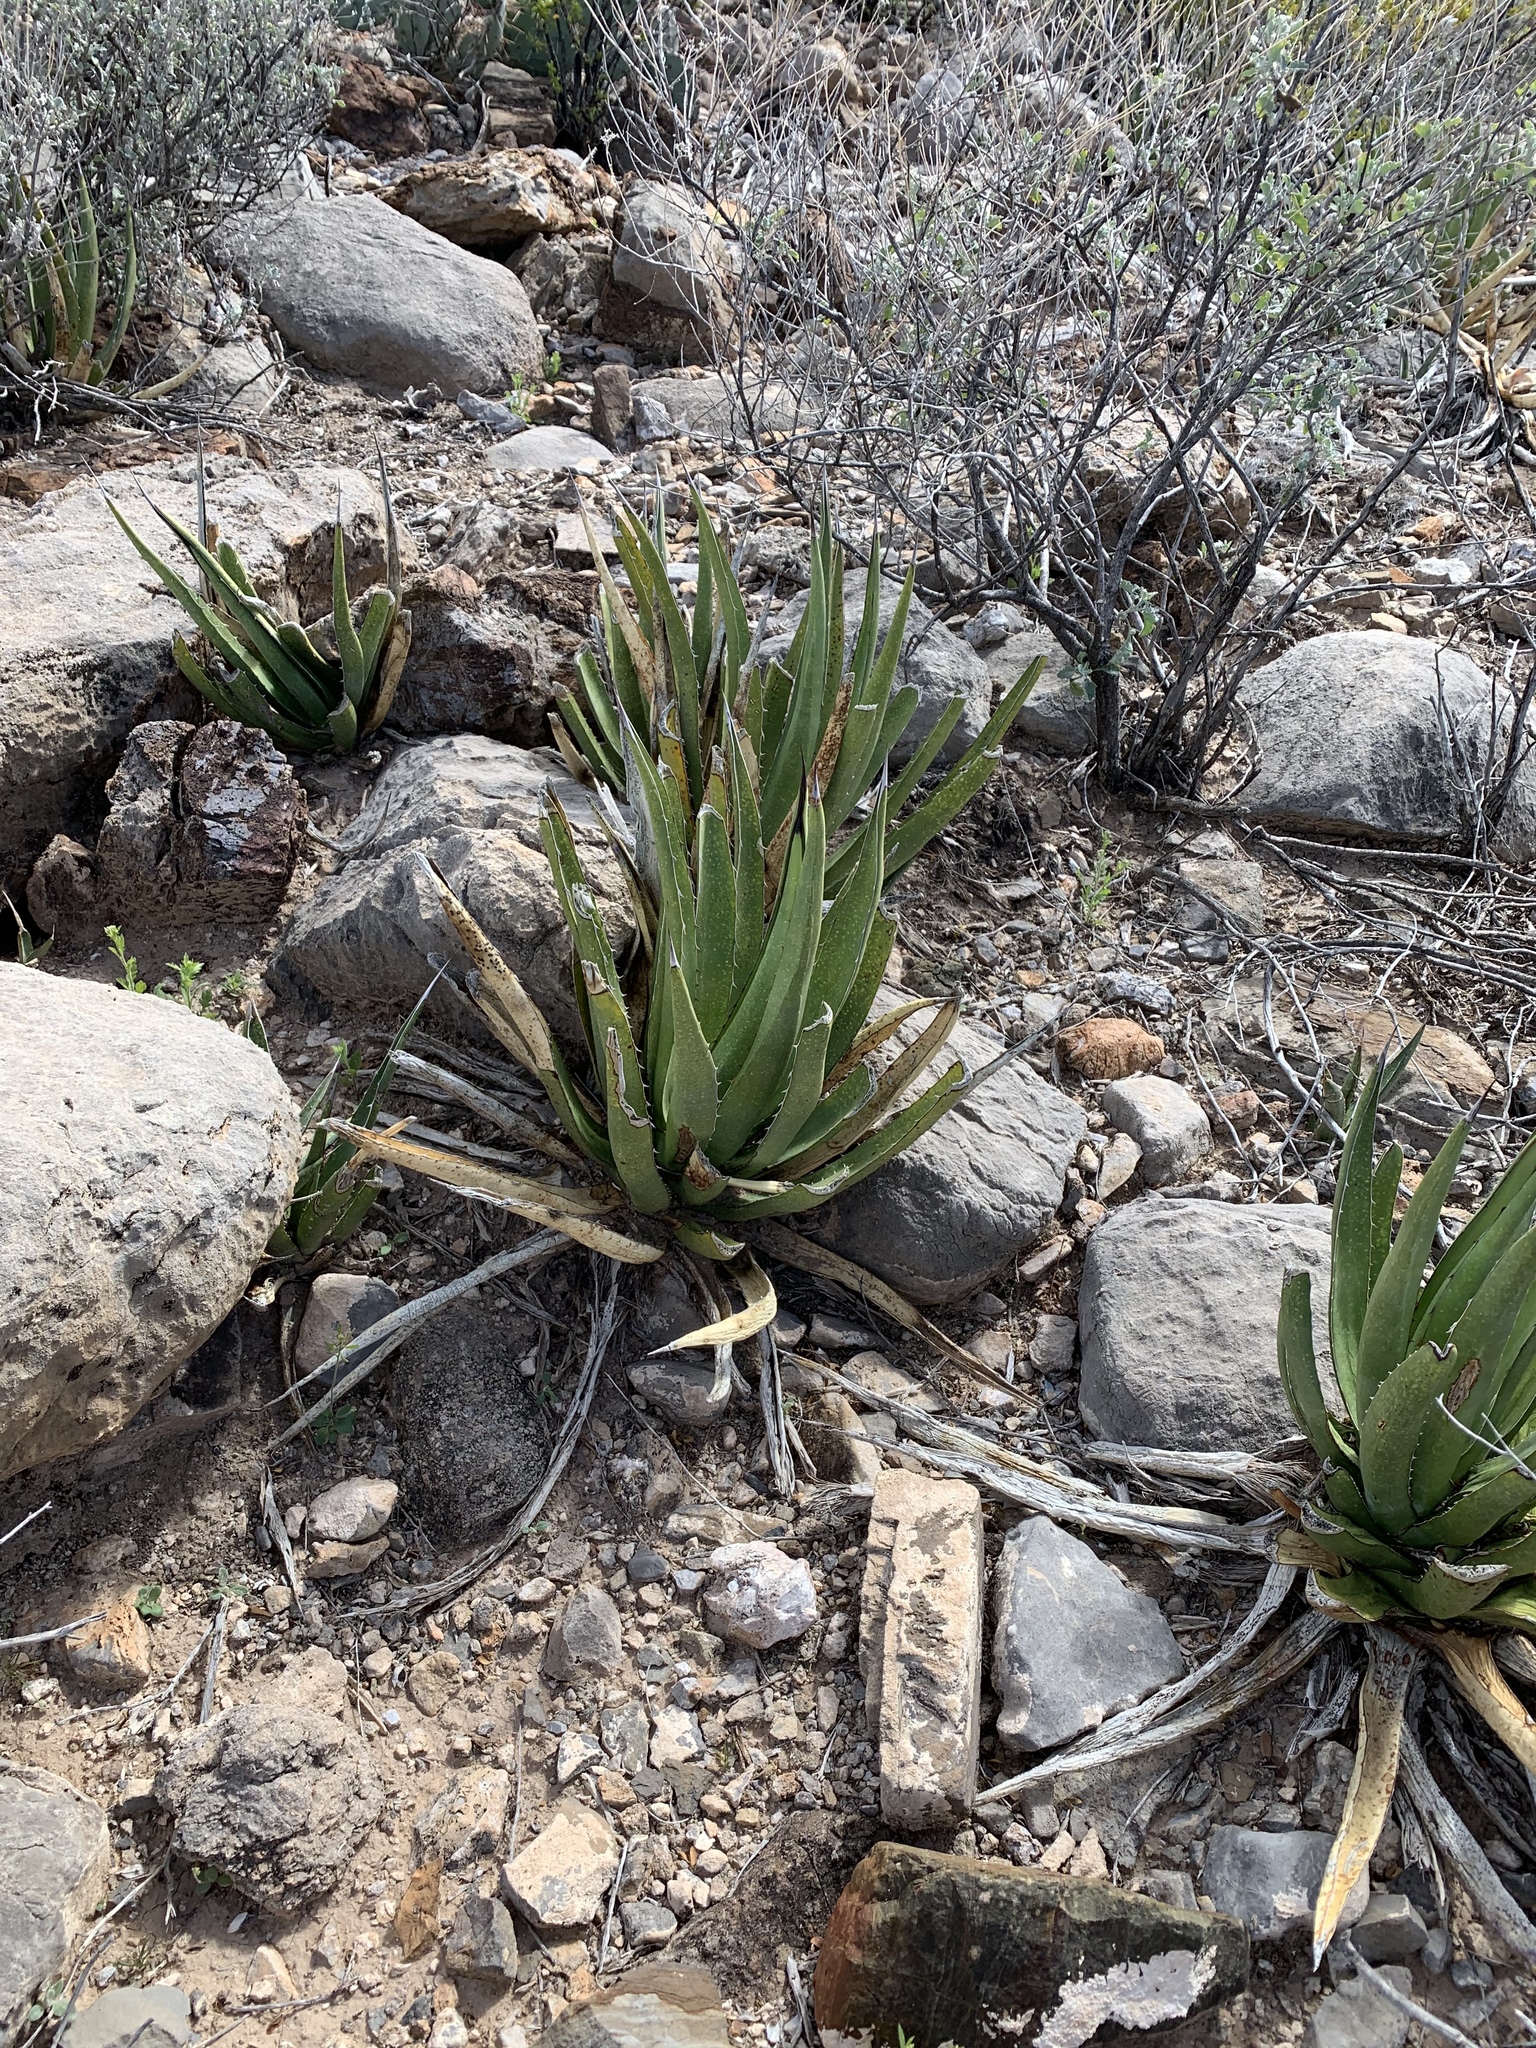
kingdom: Plantae
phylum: Tracheophyta
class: Liliopsida
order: Asparagales
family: Asparagaceae
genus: Agave
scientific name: Agave lechuguilla
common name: Lecheguilla agave
